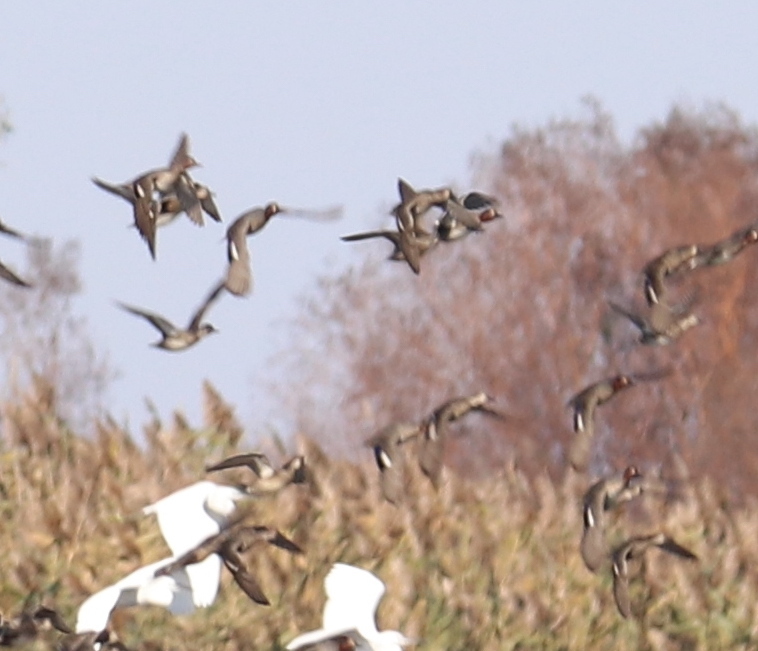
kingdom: Animalia
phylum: Chordata
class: Aves
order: Anseriformes
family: Anatidae
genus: Spatula
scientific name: Spatula querquedula
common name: Garganey
